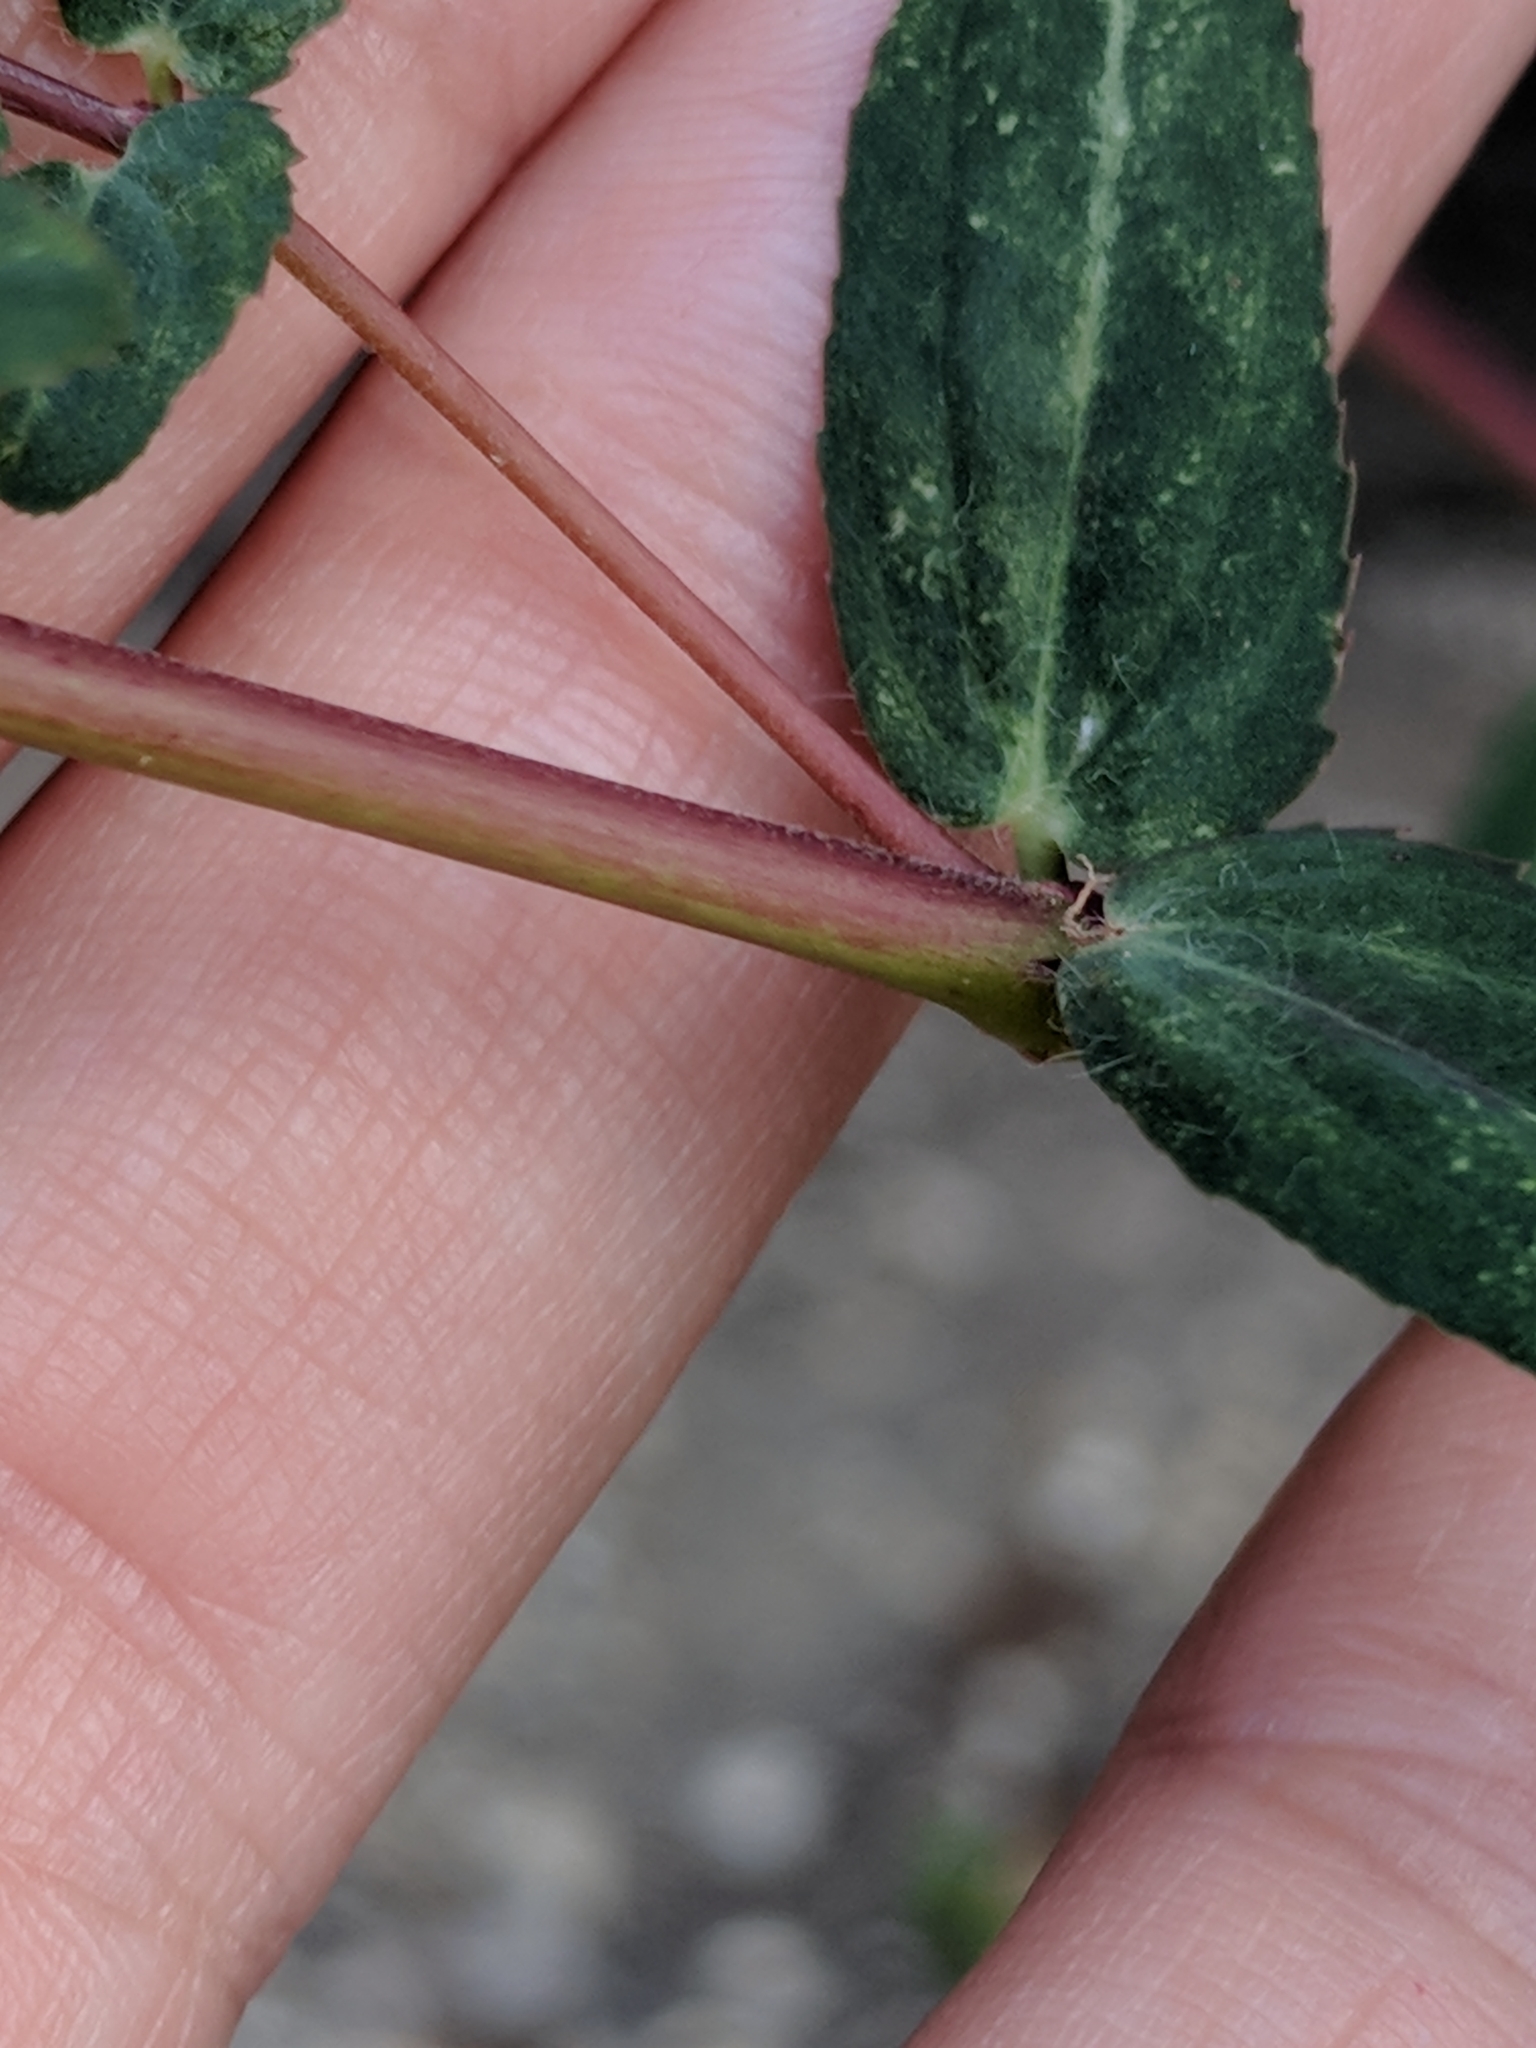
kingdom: Plantae
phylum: Tracheophyta
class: Magnoliopsida
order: Malpighiales
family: Euphorbiaceae
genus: Euphorbia
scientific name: Euphorbia nutans
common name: Eyebane
